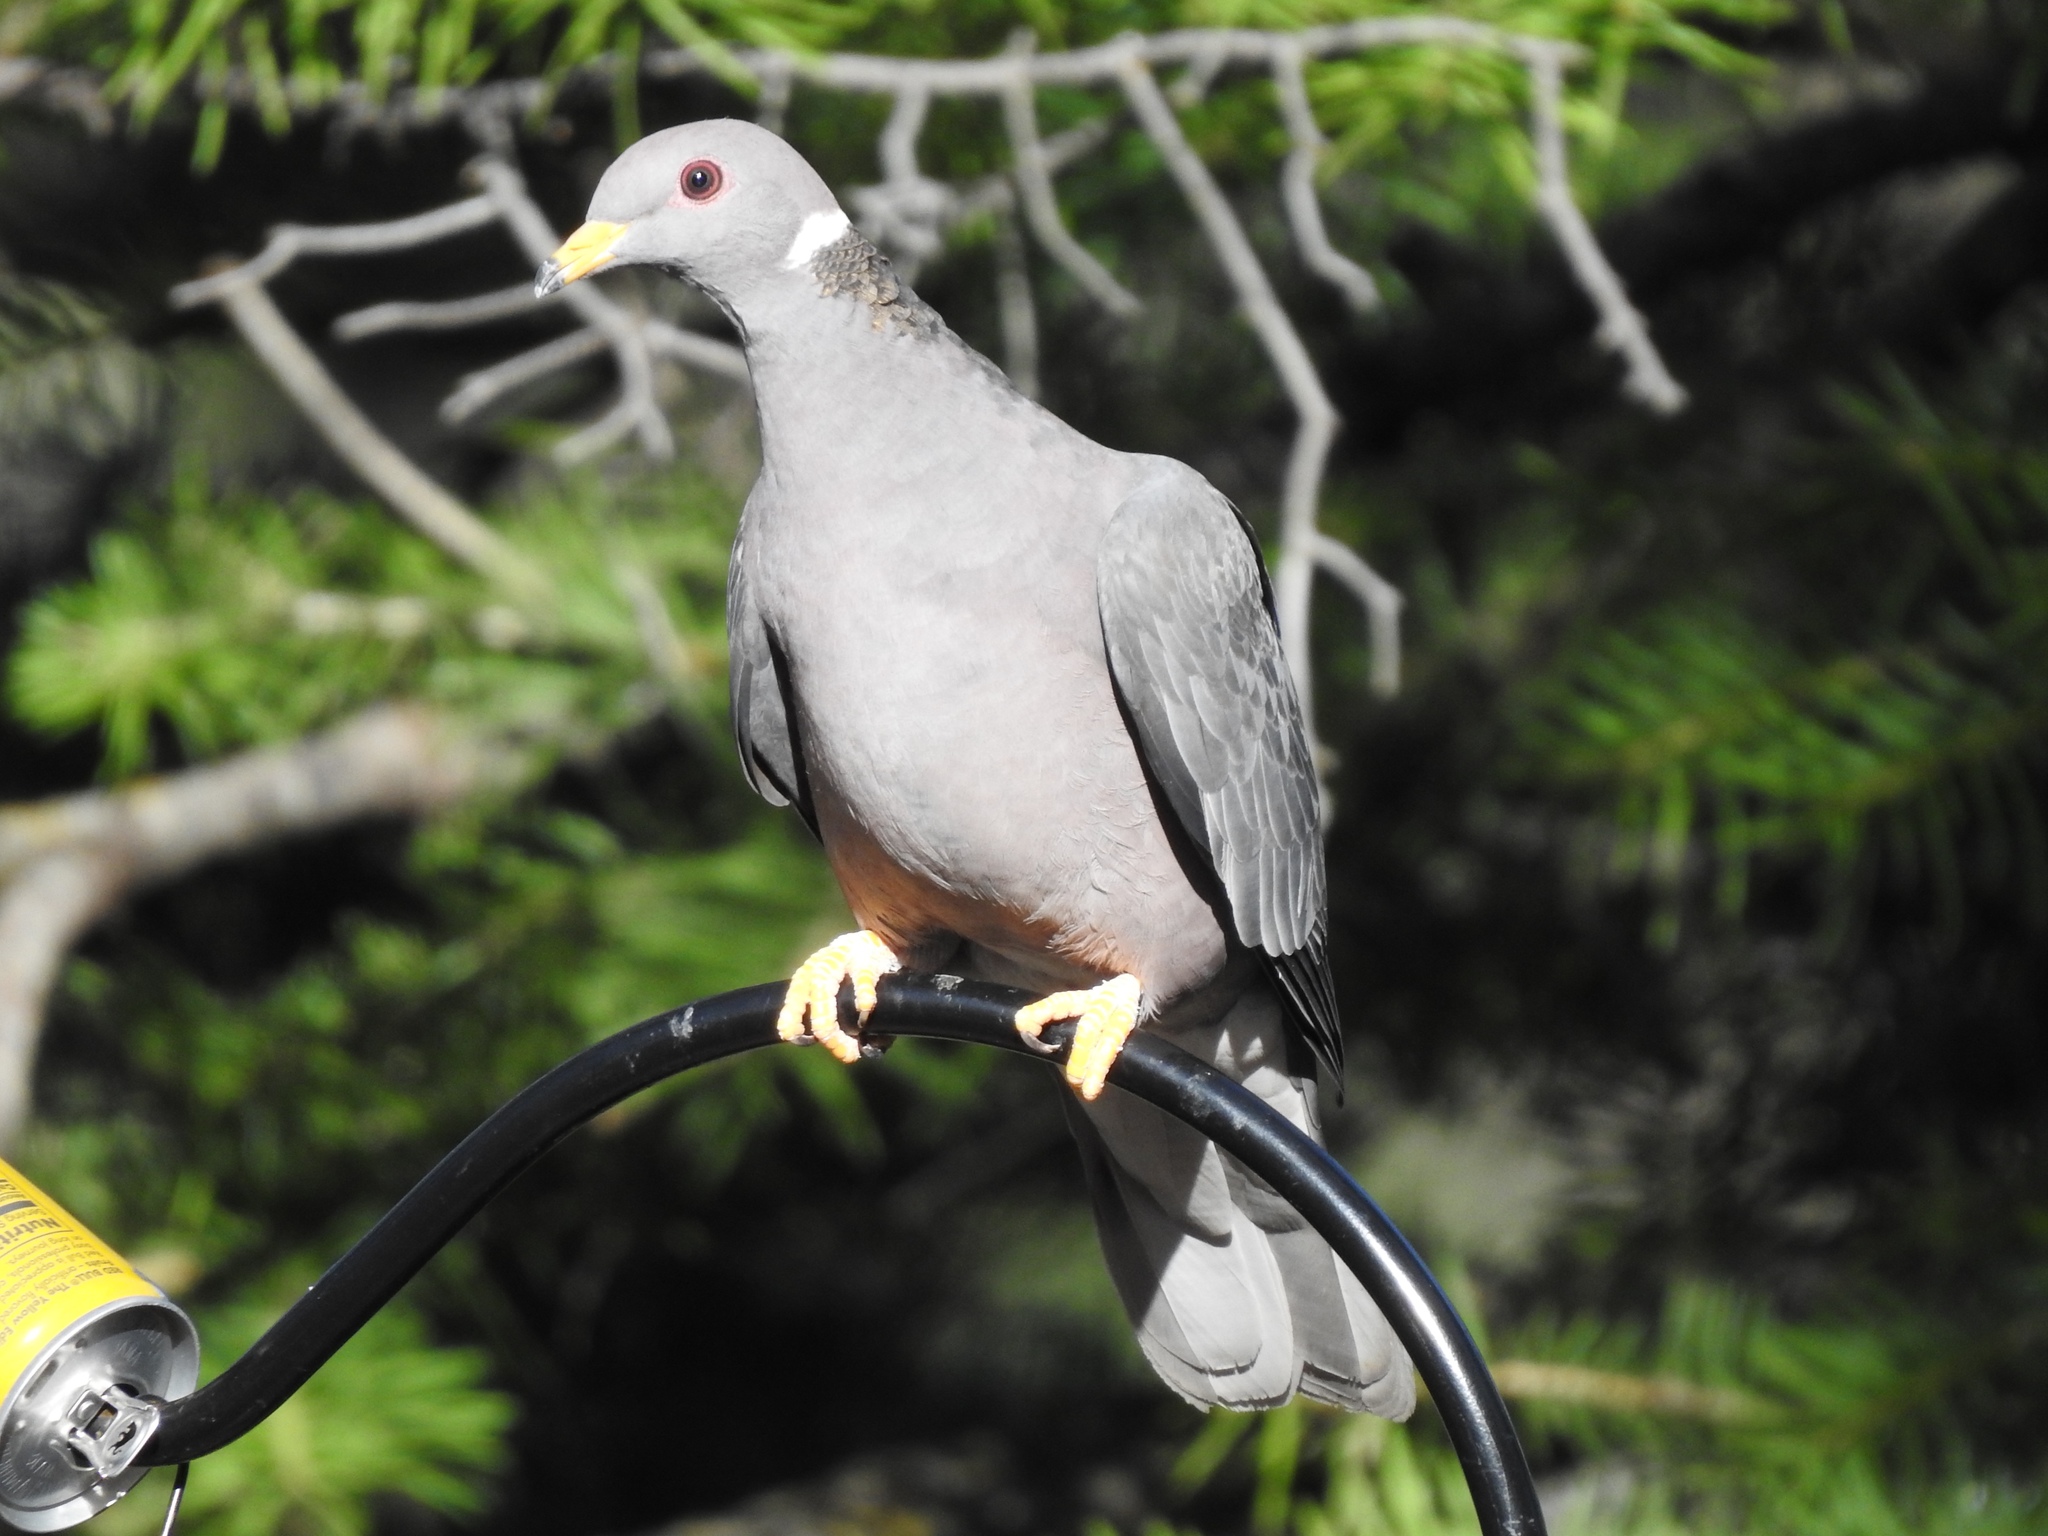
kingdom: Animalia
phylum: Chordata
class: Aves
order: Columbiformes
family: Columbidae
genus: Patagioenas
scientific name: Patagioenas fasciata
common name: Band-tailed pigeon
